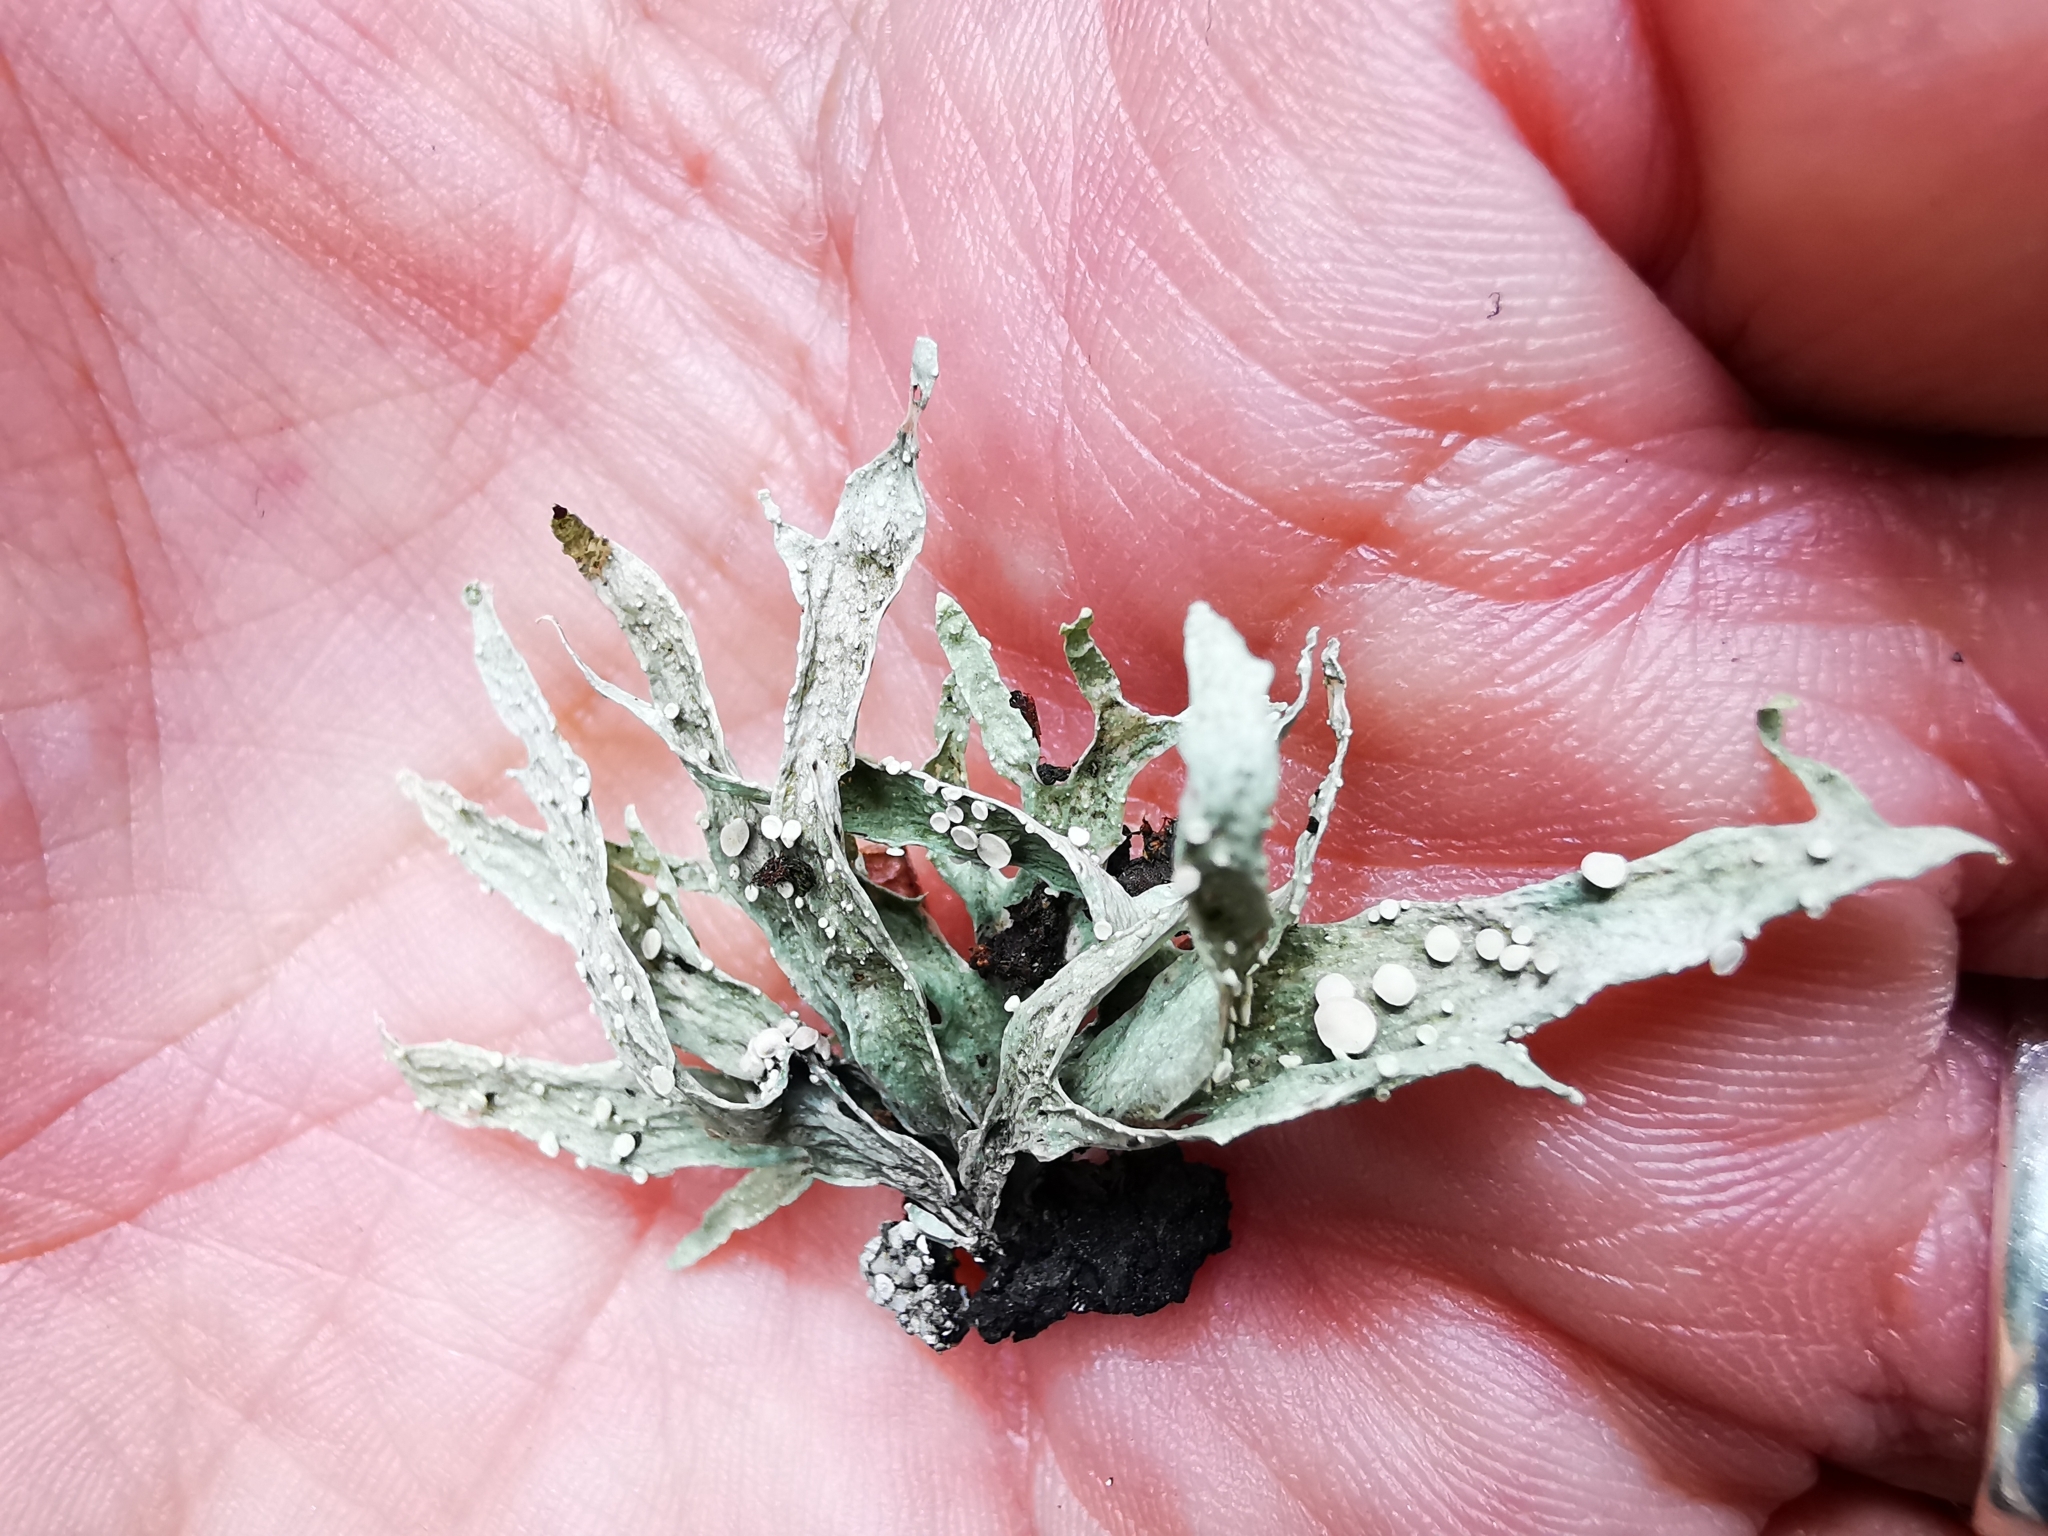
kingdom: Fungi
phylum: Ascomycota
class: Lecanoromycetes
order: Lecanorales
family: Ramalinaceae
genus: Ramalina
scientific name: Ramalina celastri
